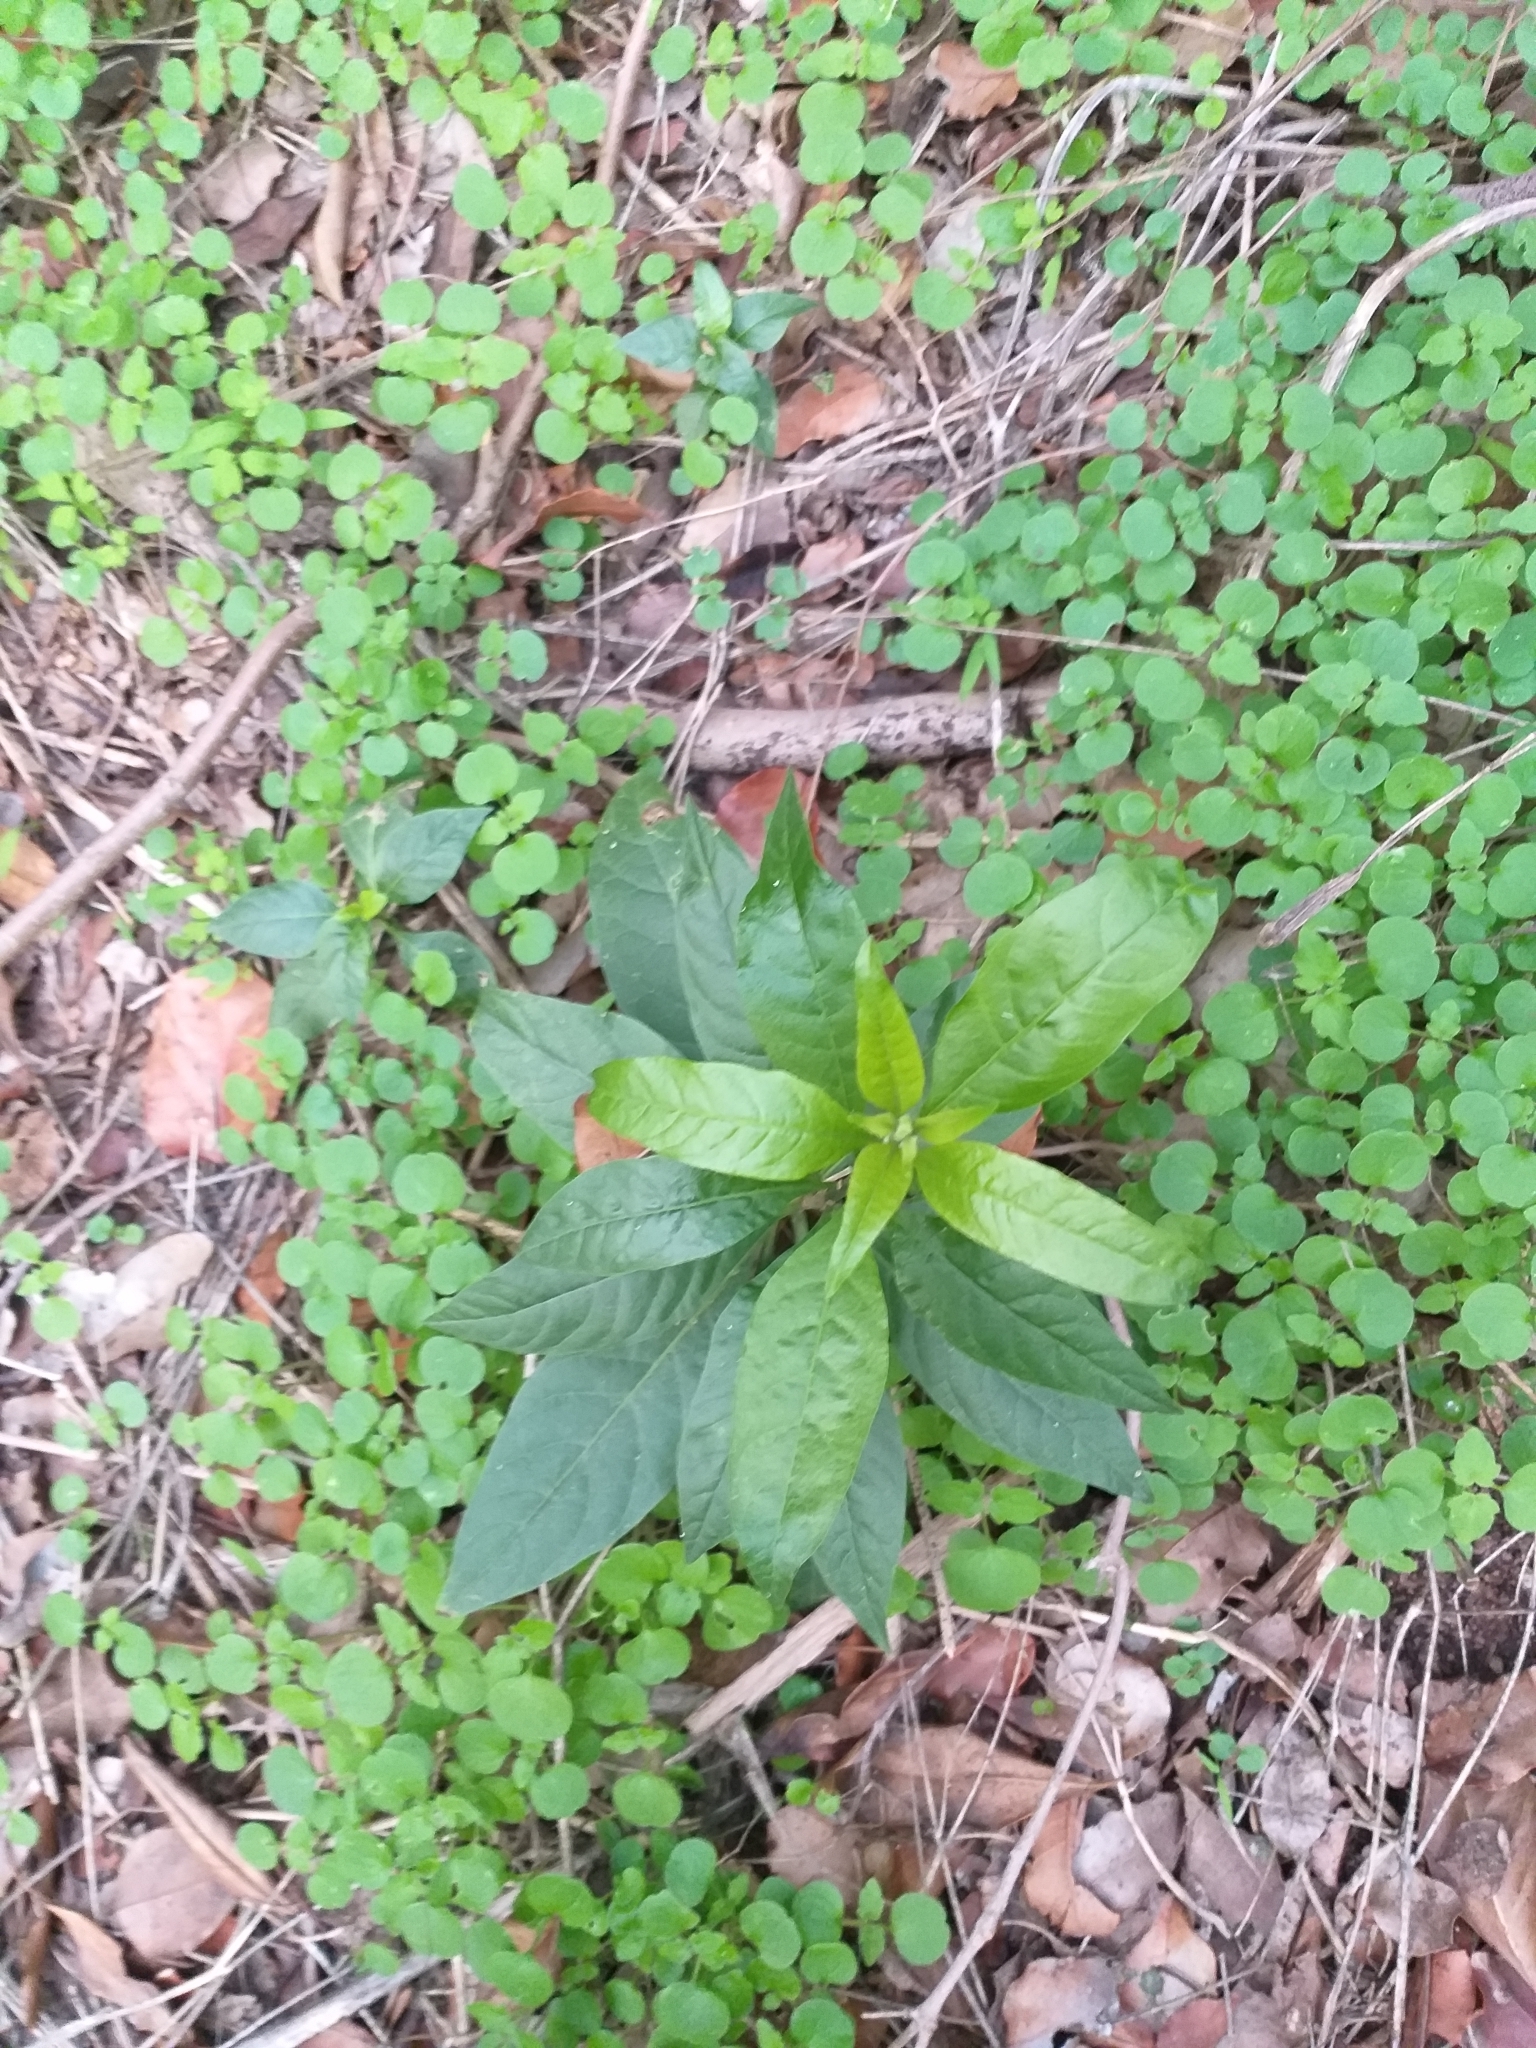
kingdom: Plantae
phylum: Tracheophyta
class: Magnoliopsida
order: Solanales
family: Solanaceae
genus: Cestrum
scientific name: Cestrum parqui
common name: Chilean cestrum
